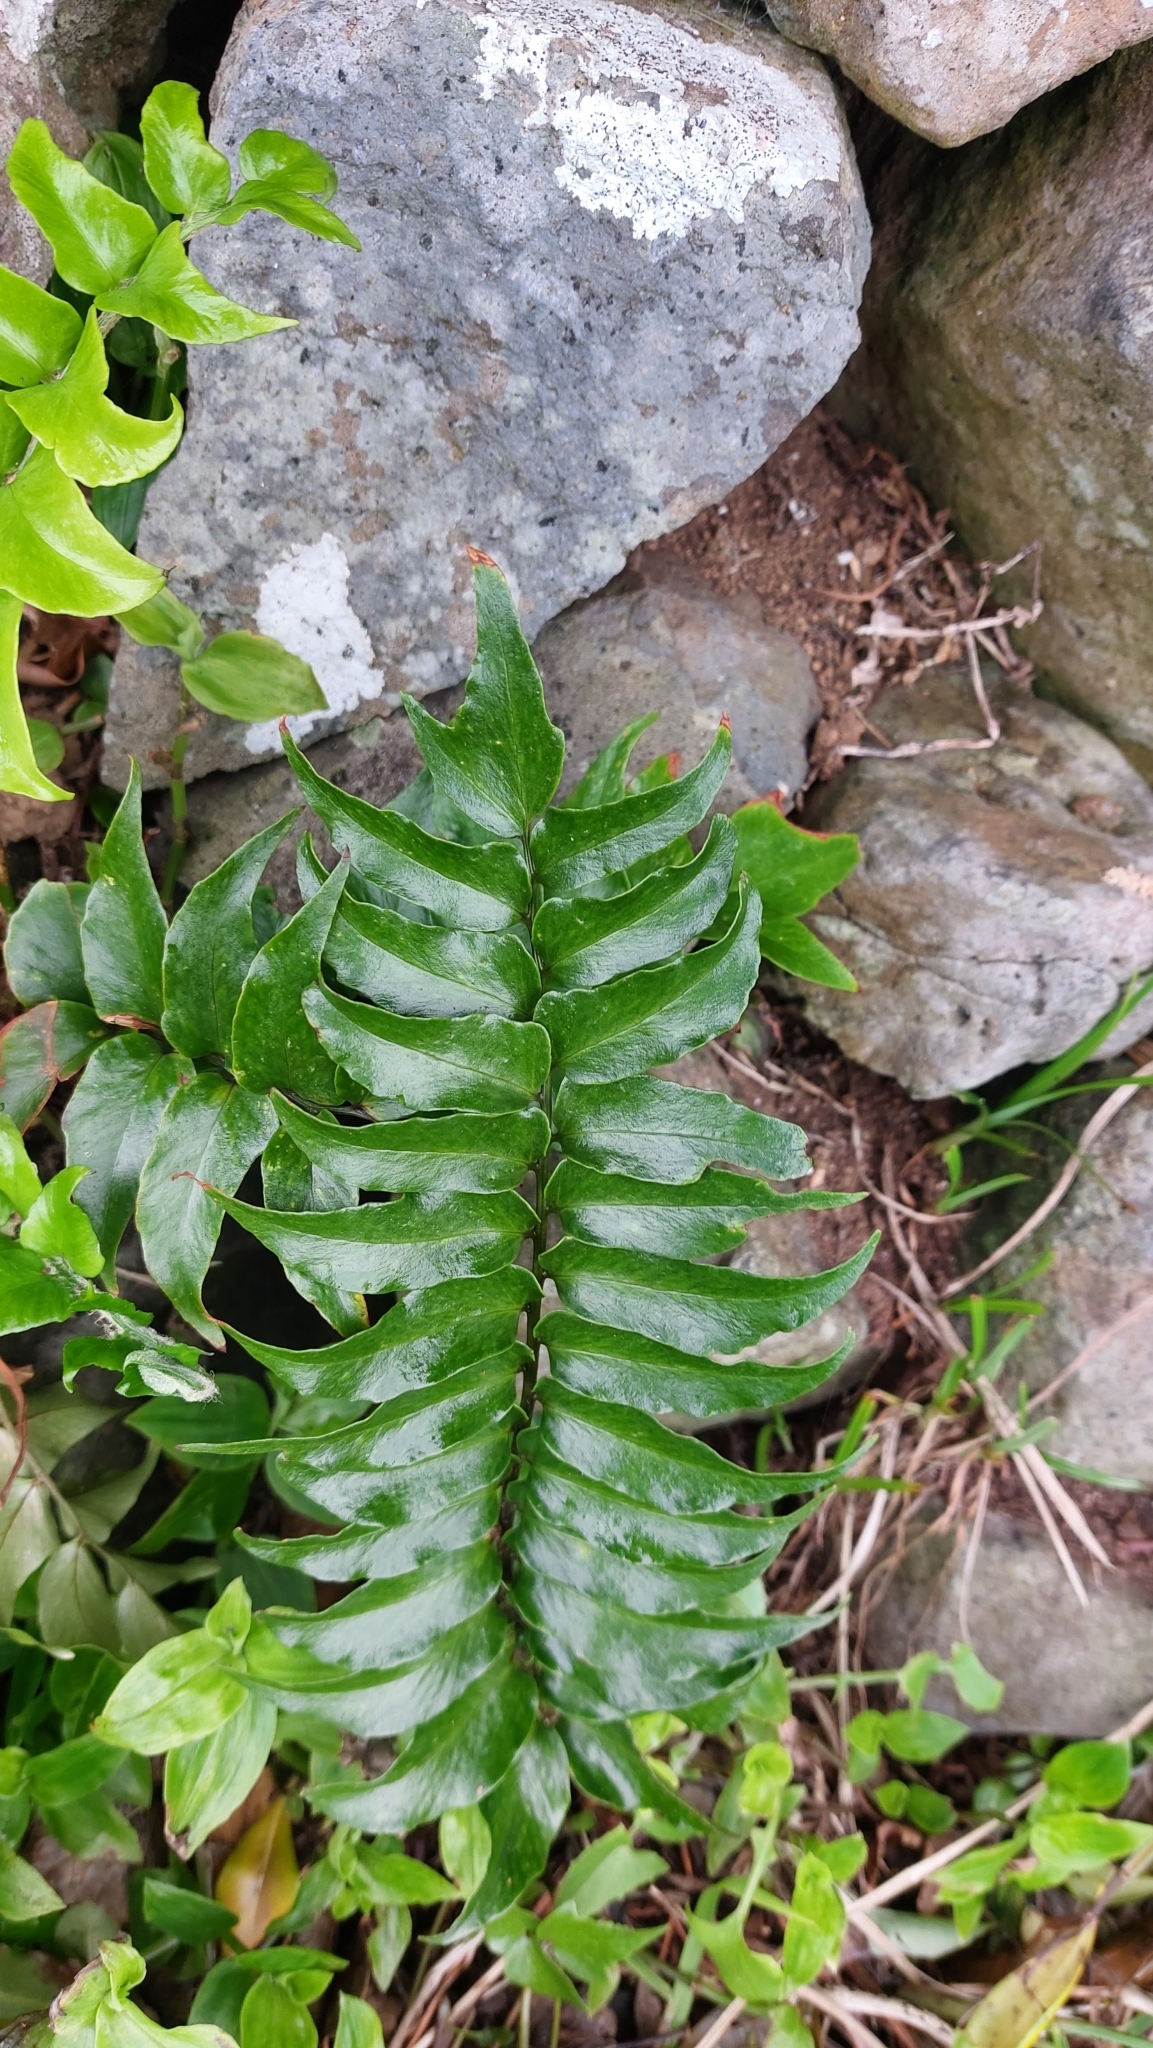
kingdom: Plantae
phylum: Tracheophyta
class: Polypodiopsida
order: Polypodiales
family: Dryopteridaceae
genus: Cyrtomium
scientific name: Cyrtomium falcatum
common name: House holly-fern
